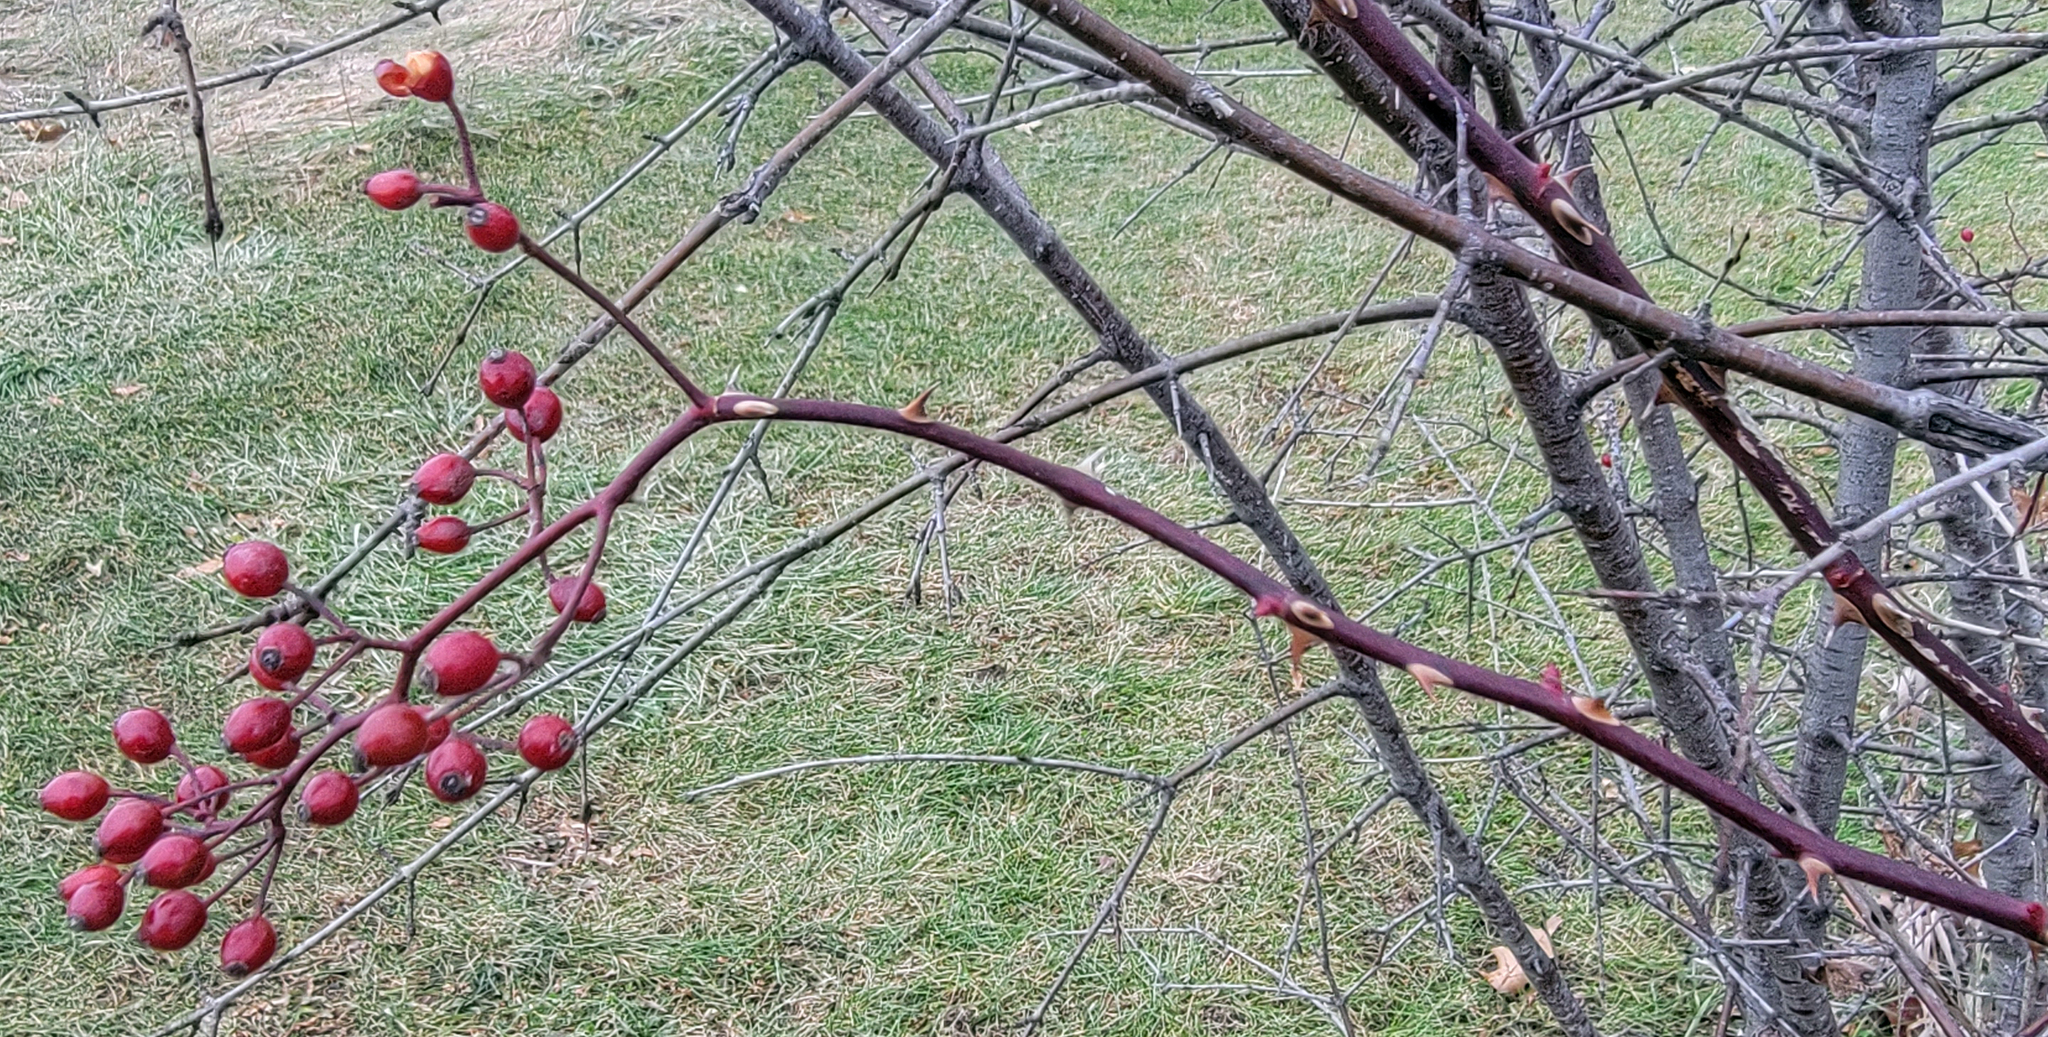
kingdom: Plantae
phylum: Tracheophyta
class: Magnoliopsida
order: Rosales
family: Rosaceae
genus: Rosa
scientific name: Rosa multiflora
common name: Multiflora rose
